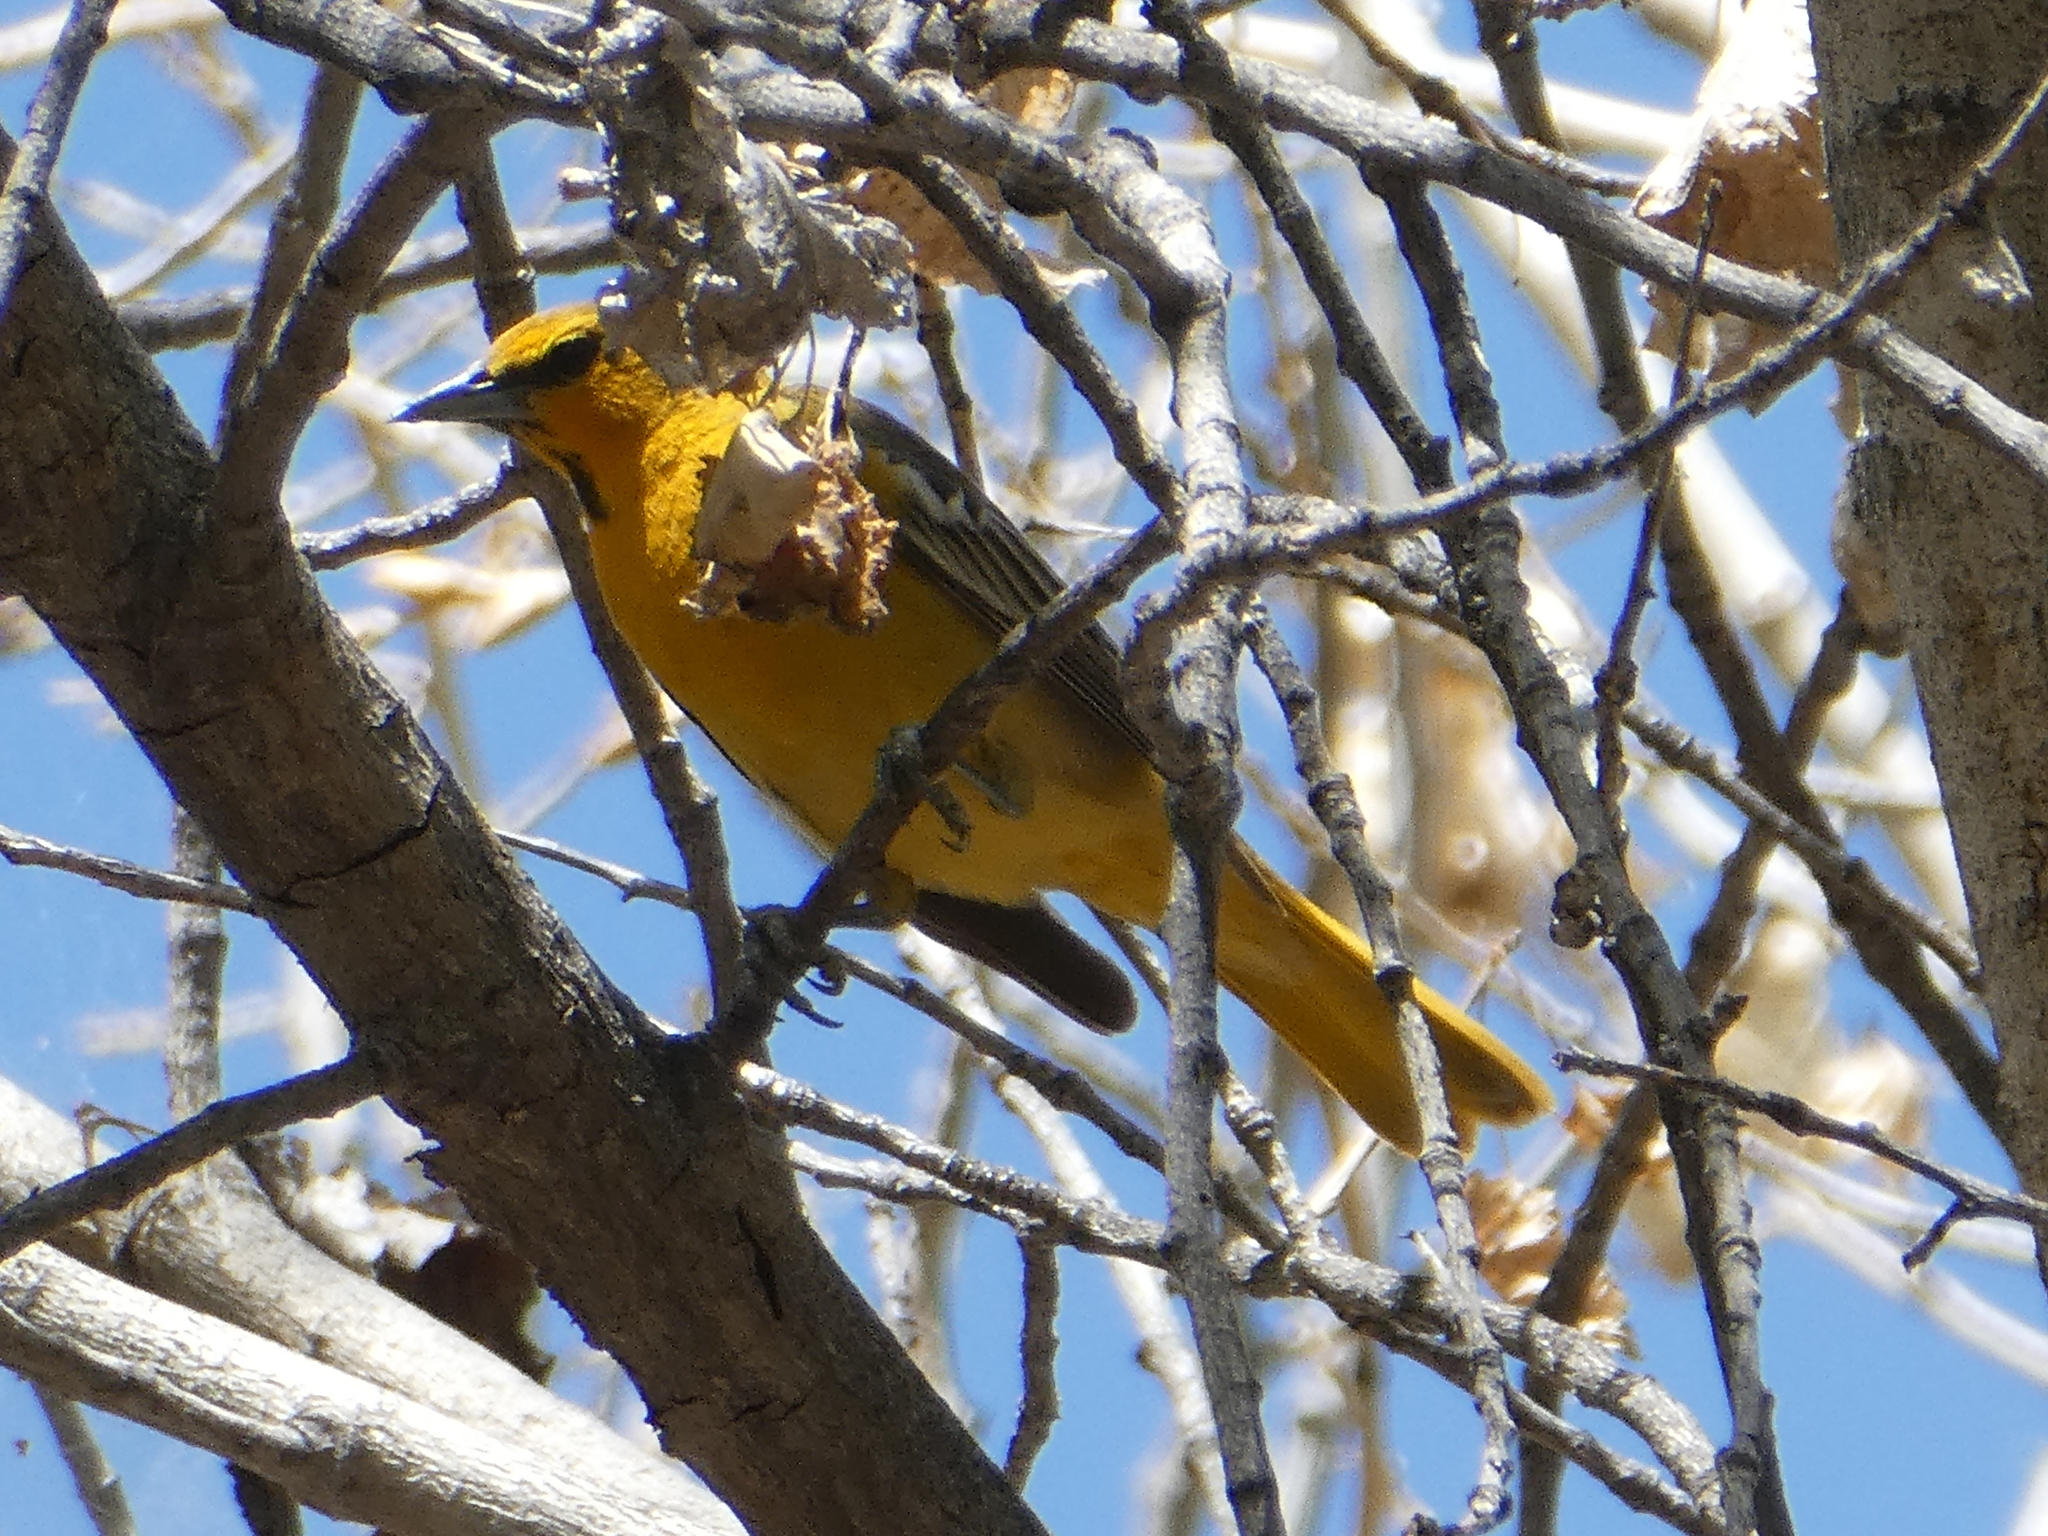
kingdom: Animalia
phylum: Chordata
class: Aves
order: Passeriformes
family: Icteridae
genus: Icterus
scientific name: Icterus bullockii
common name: Bullock's oriole
